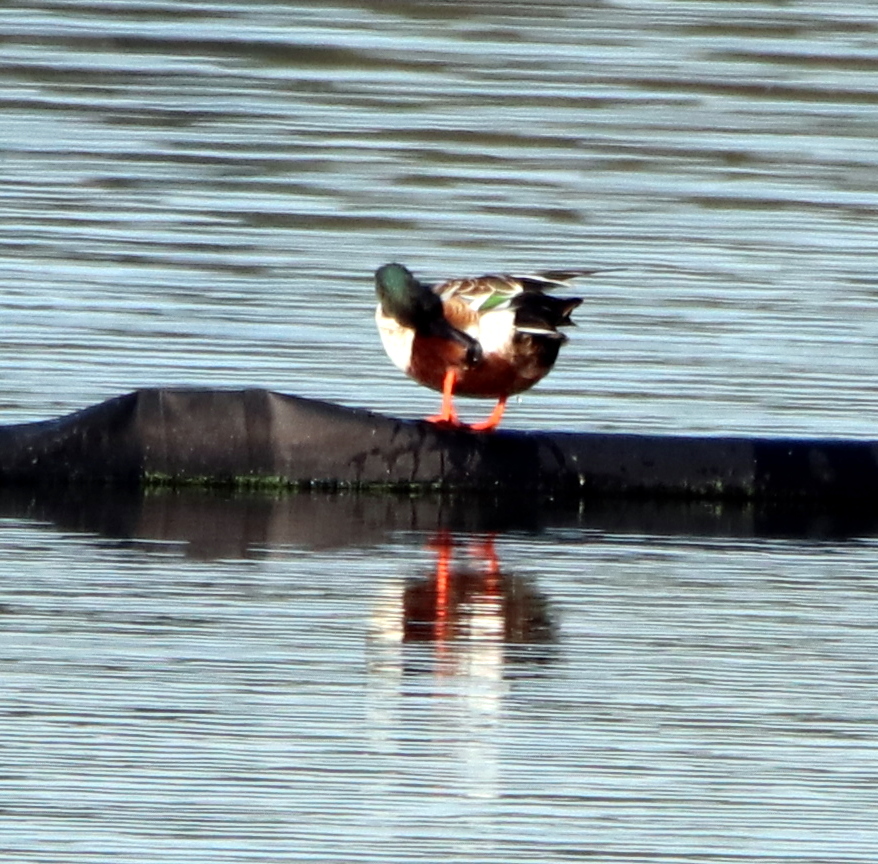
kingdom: Animalia
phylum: Chordata
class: Aves
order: Anseriformes
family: Anatidae
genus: Spatula
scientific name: Spatula clypeata
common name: Northern shoveler
